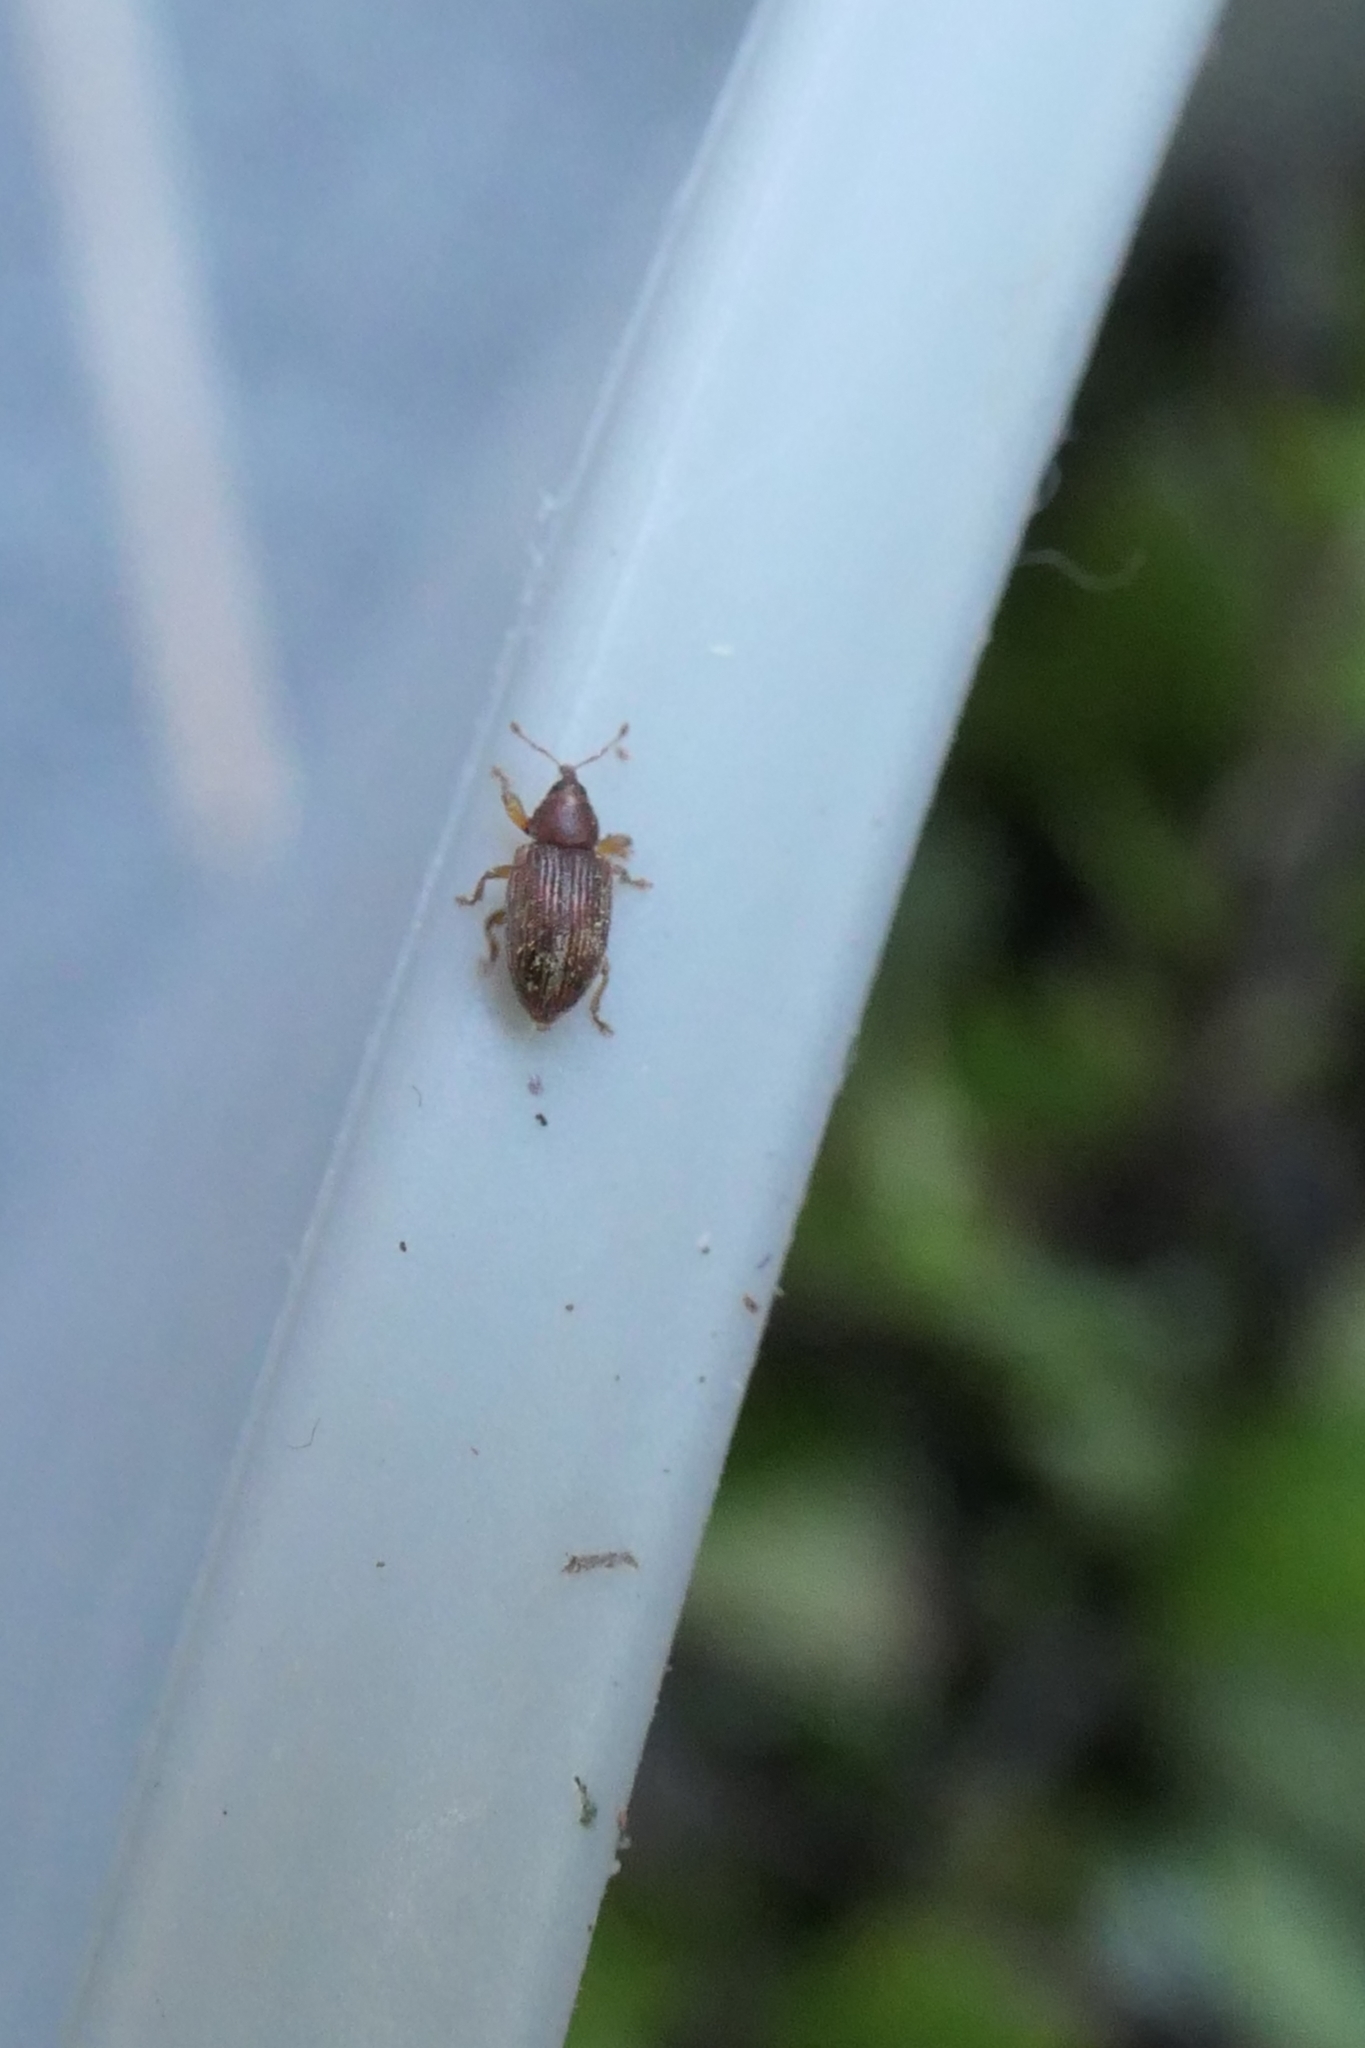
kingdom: Animalia
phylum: Arthropoda
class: Insecta
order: Coleoptera
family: Curculionidae
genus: Aneuma
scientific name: Aneuma
